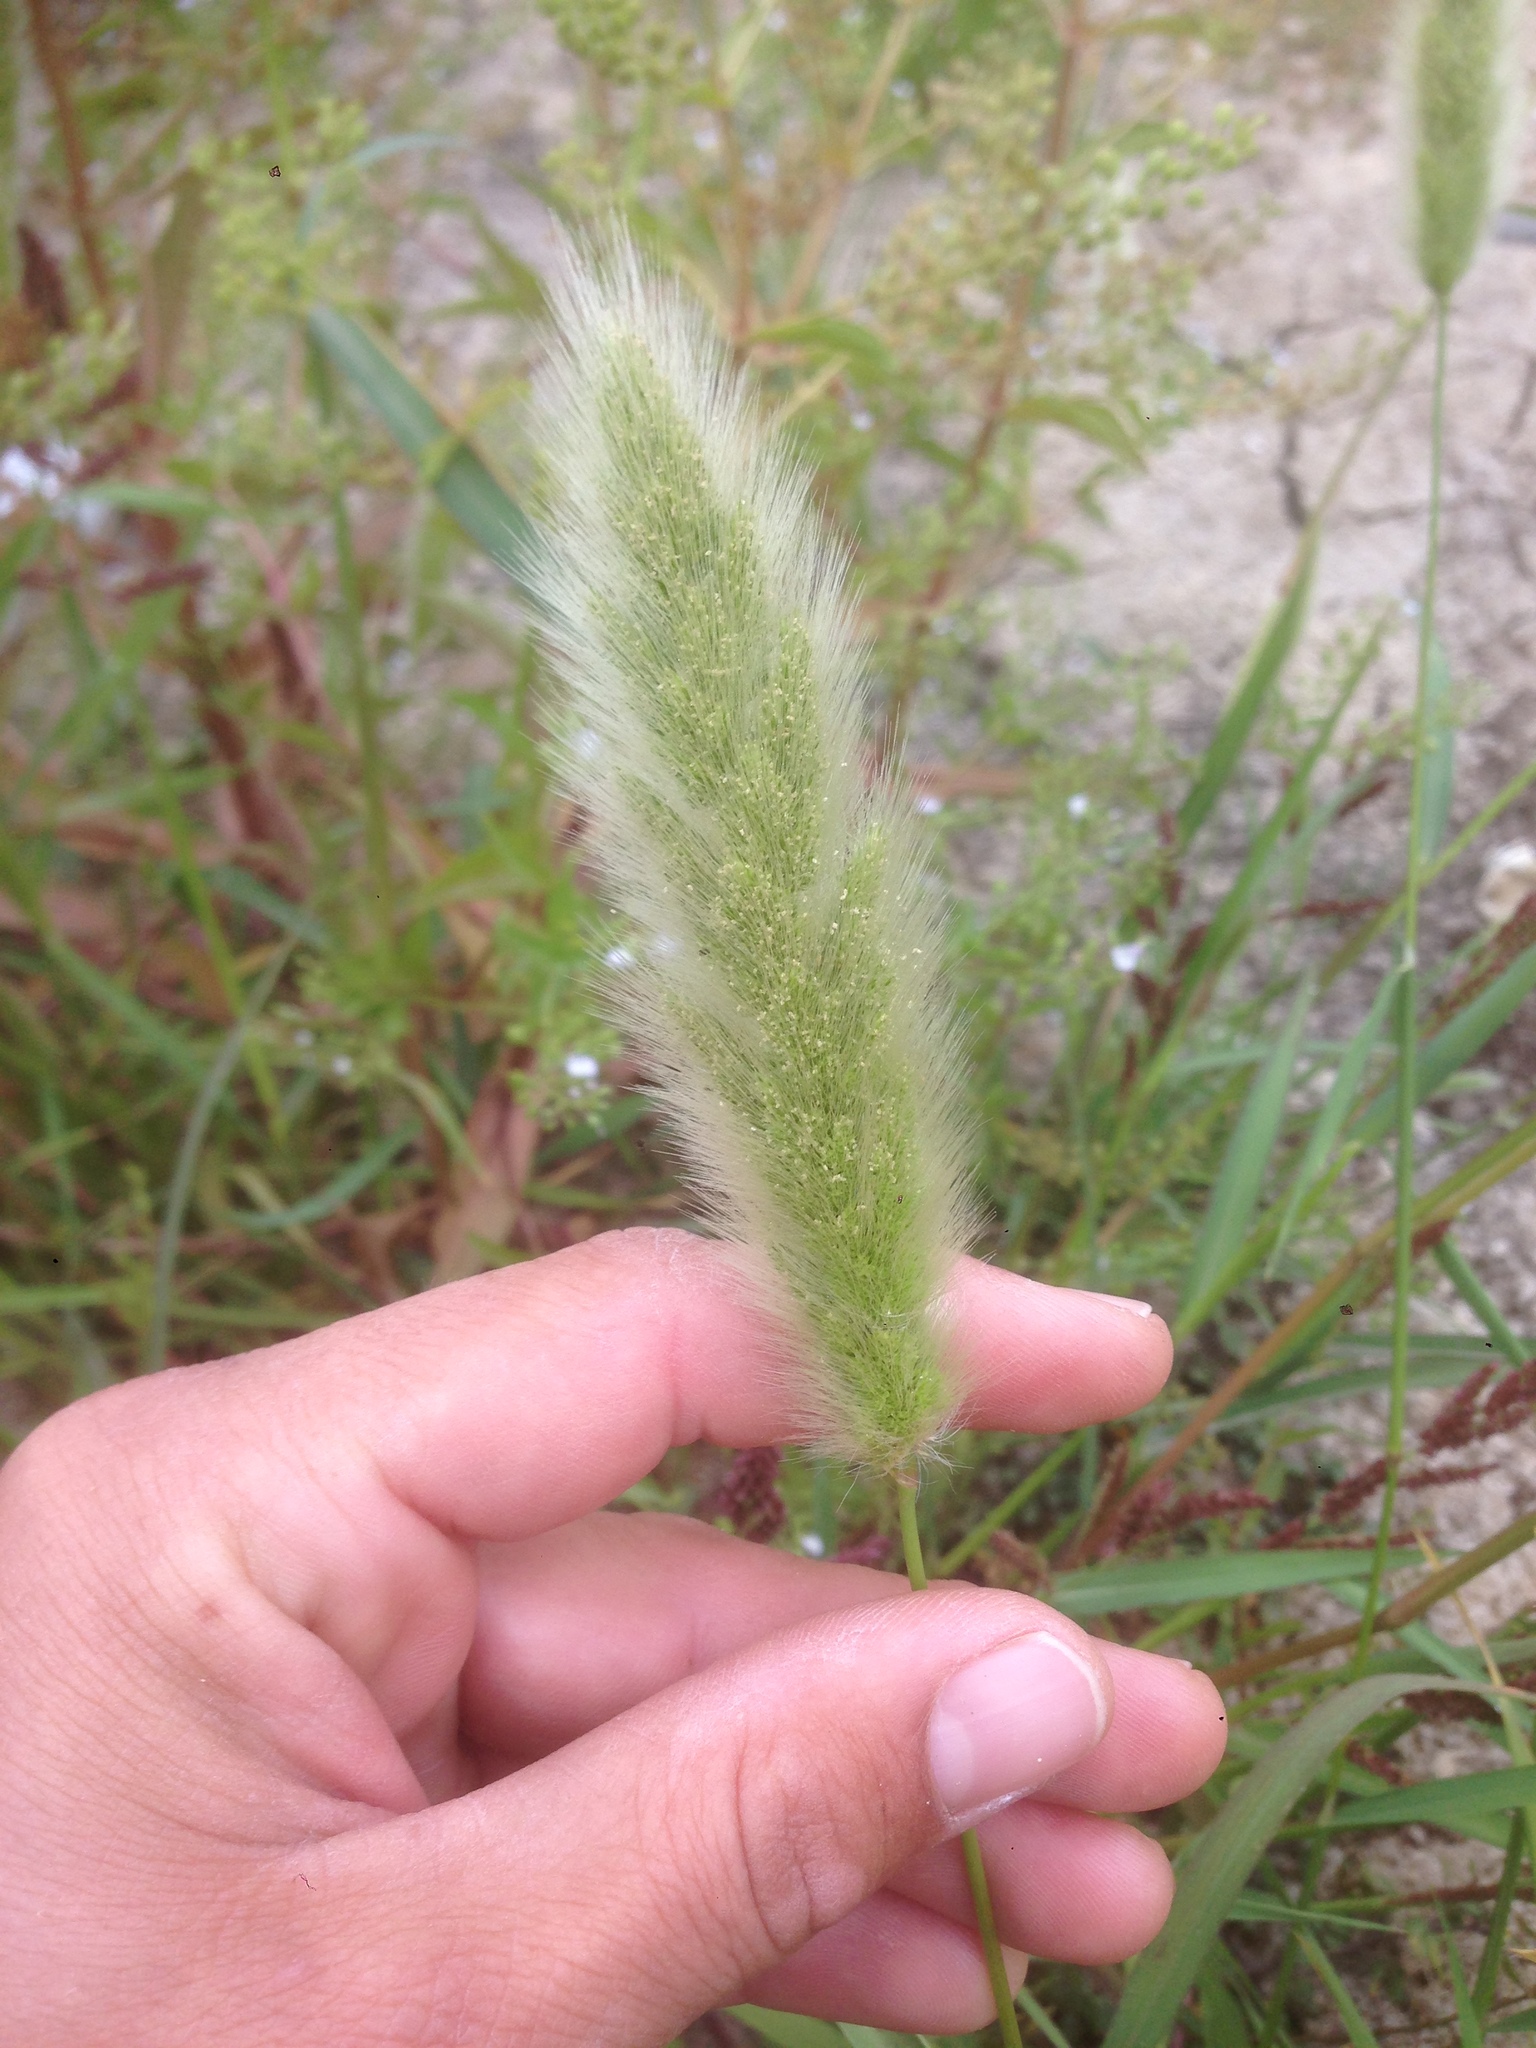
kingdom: Plantae
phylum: Tracheophyta
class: Liliopsida
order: Poales
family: Poaceae
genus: Polypogon
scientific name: Polypogon monspeliensis
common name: Annual rabbitsfoot grass
